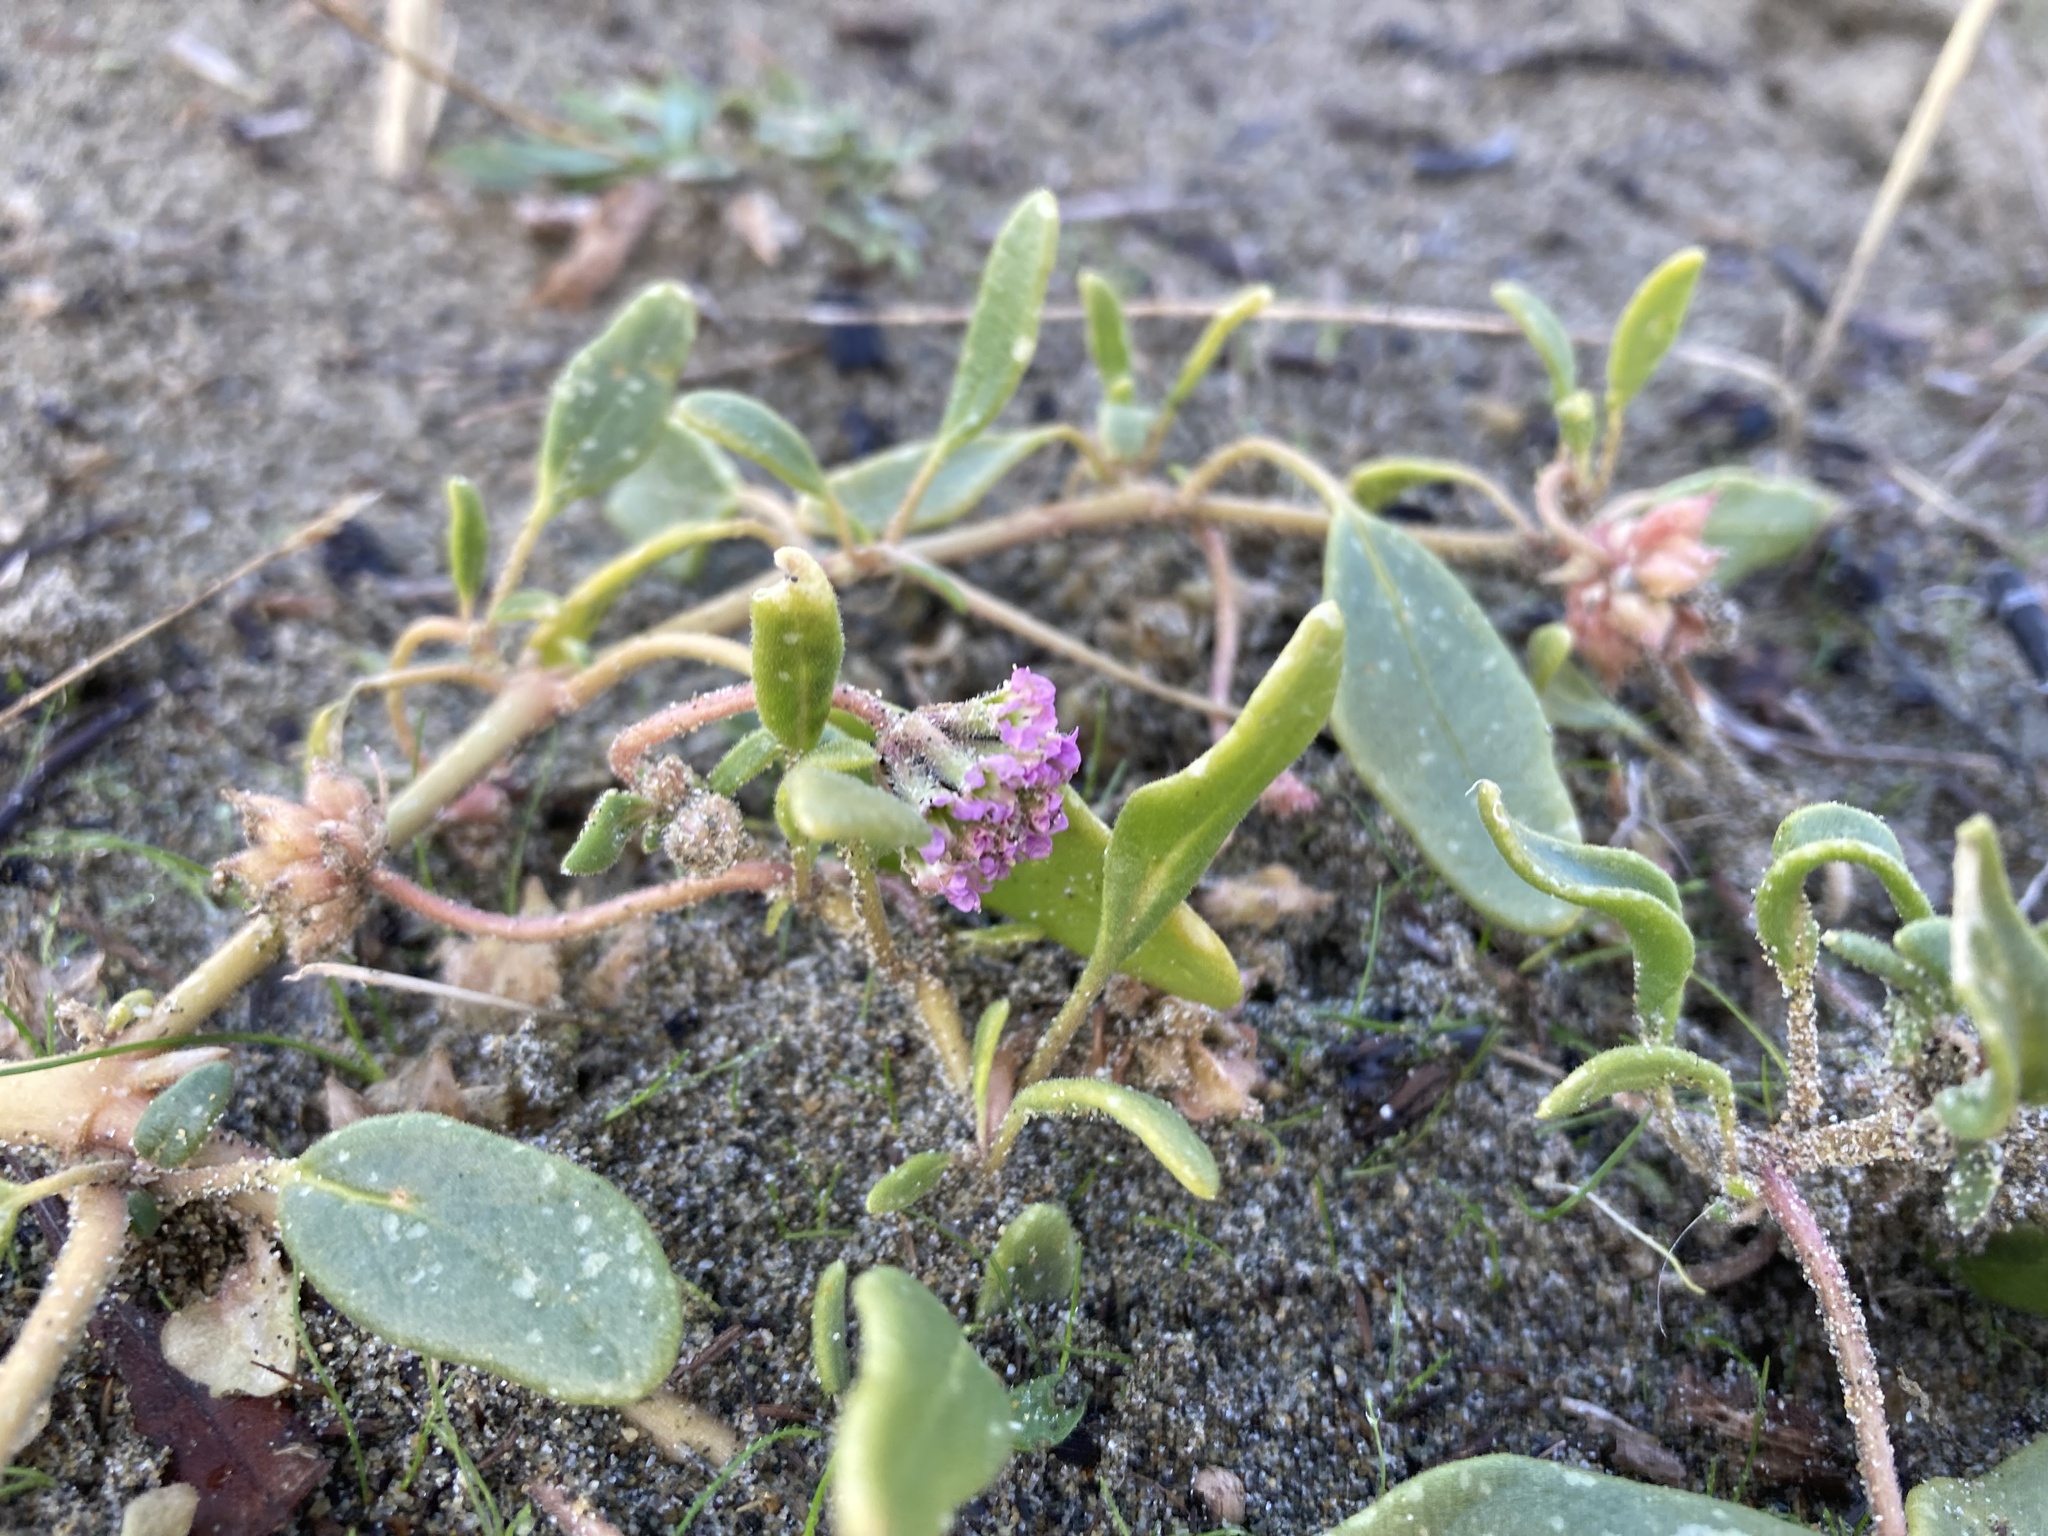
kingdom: Plantae
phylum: Tracheophyta
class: Magnoliopsida
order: Caryophyllales
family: Nyctaginaceae
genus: Abronia
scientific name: Abronia umbellata
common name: Sand-verbena
